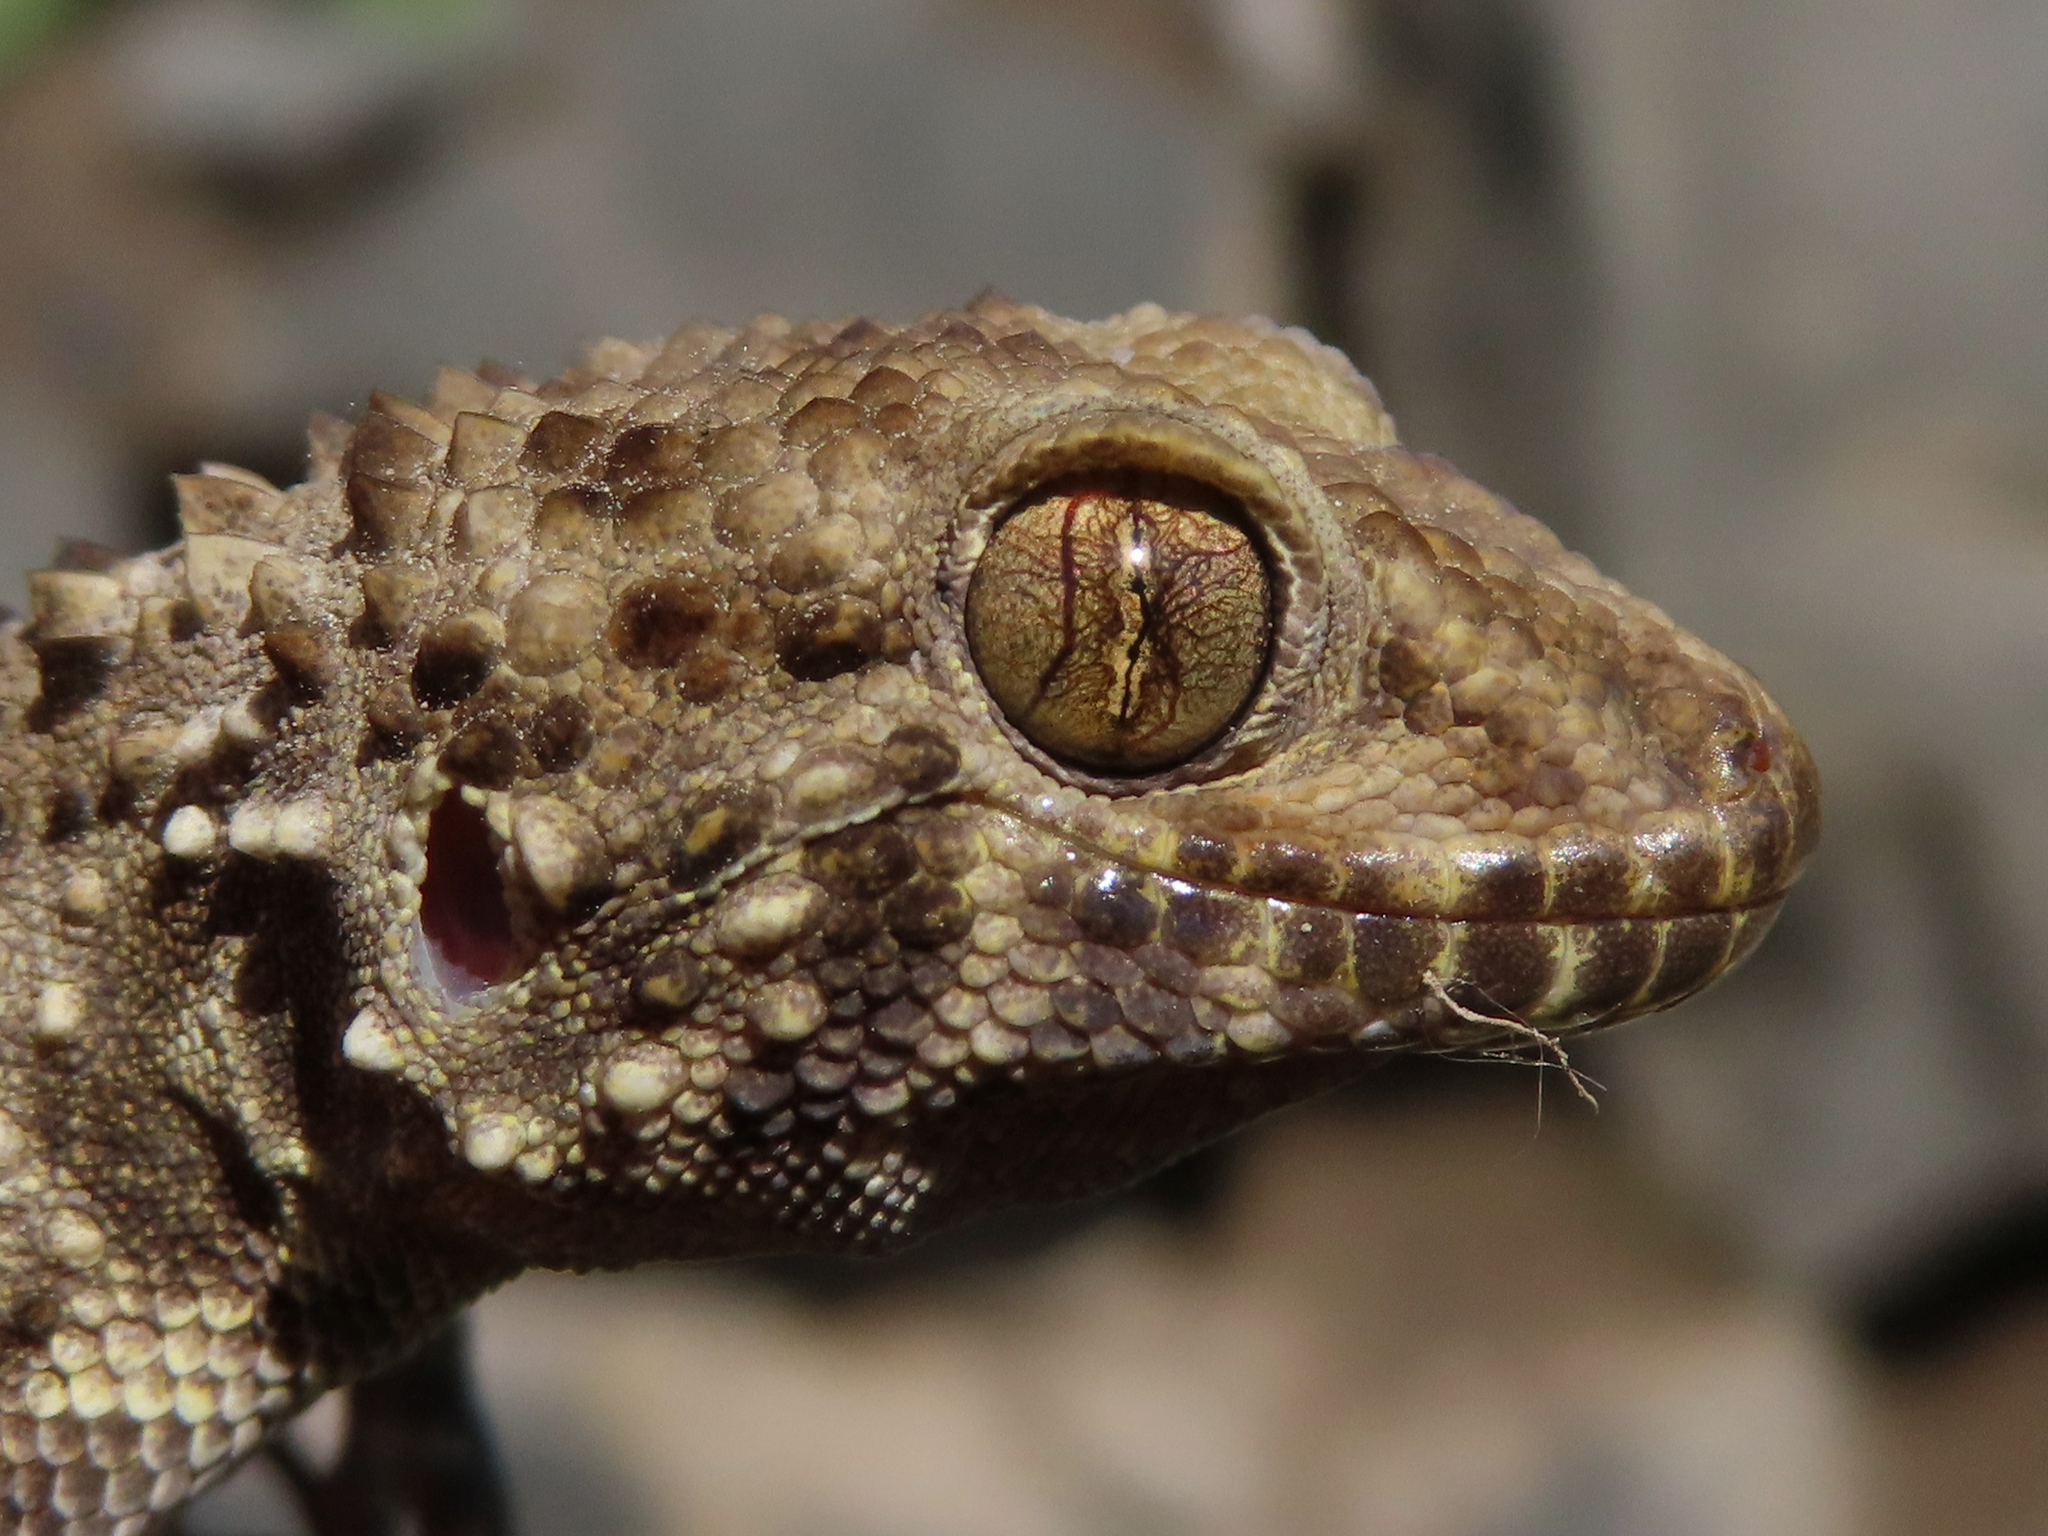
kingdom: Animalia
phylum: Chordata
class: Squamata
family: Gekkonidae
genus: Tenuidactylus
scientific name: Tenuidactylus caspius
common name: Caspian bent-toed gecko
